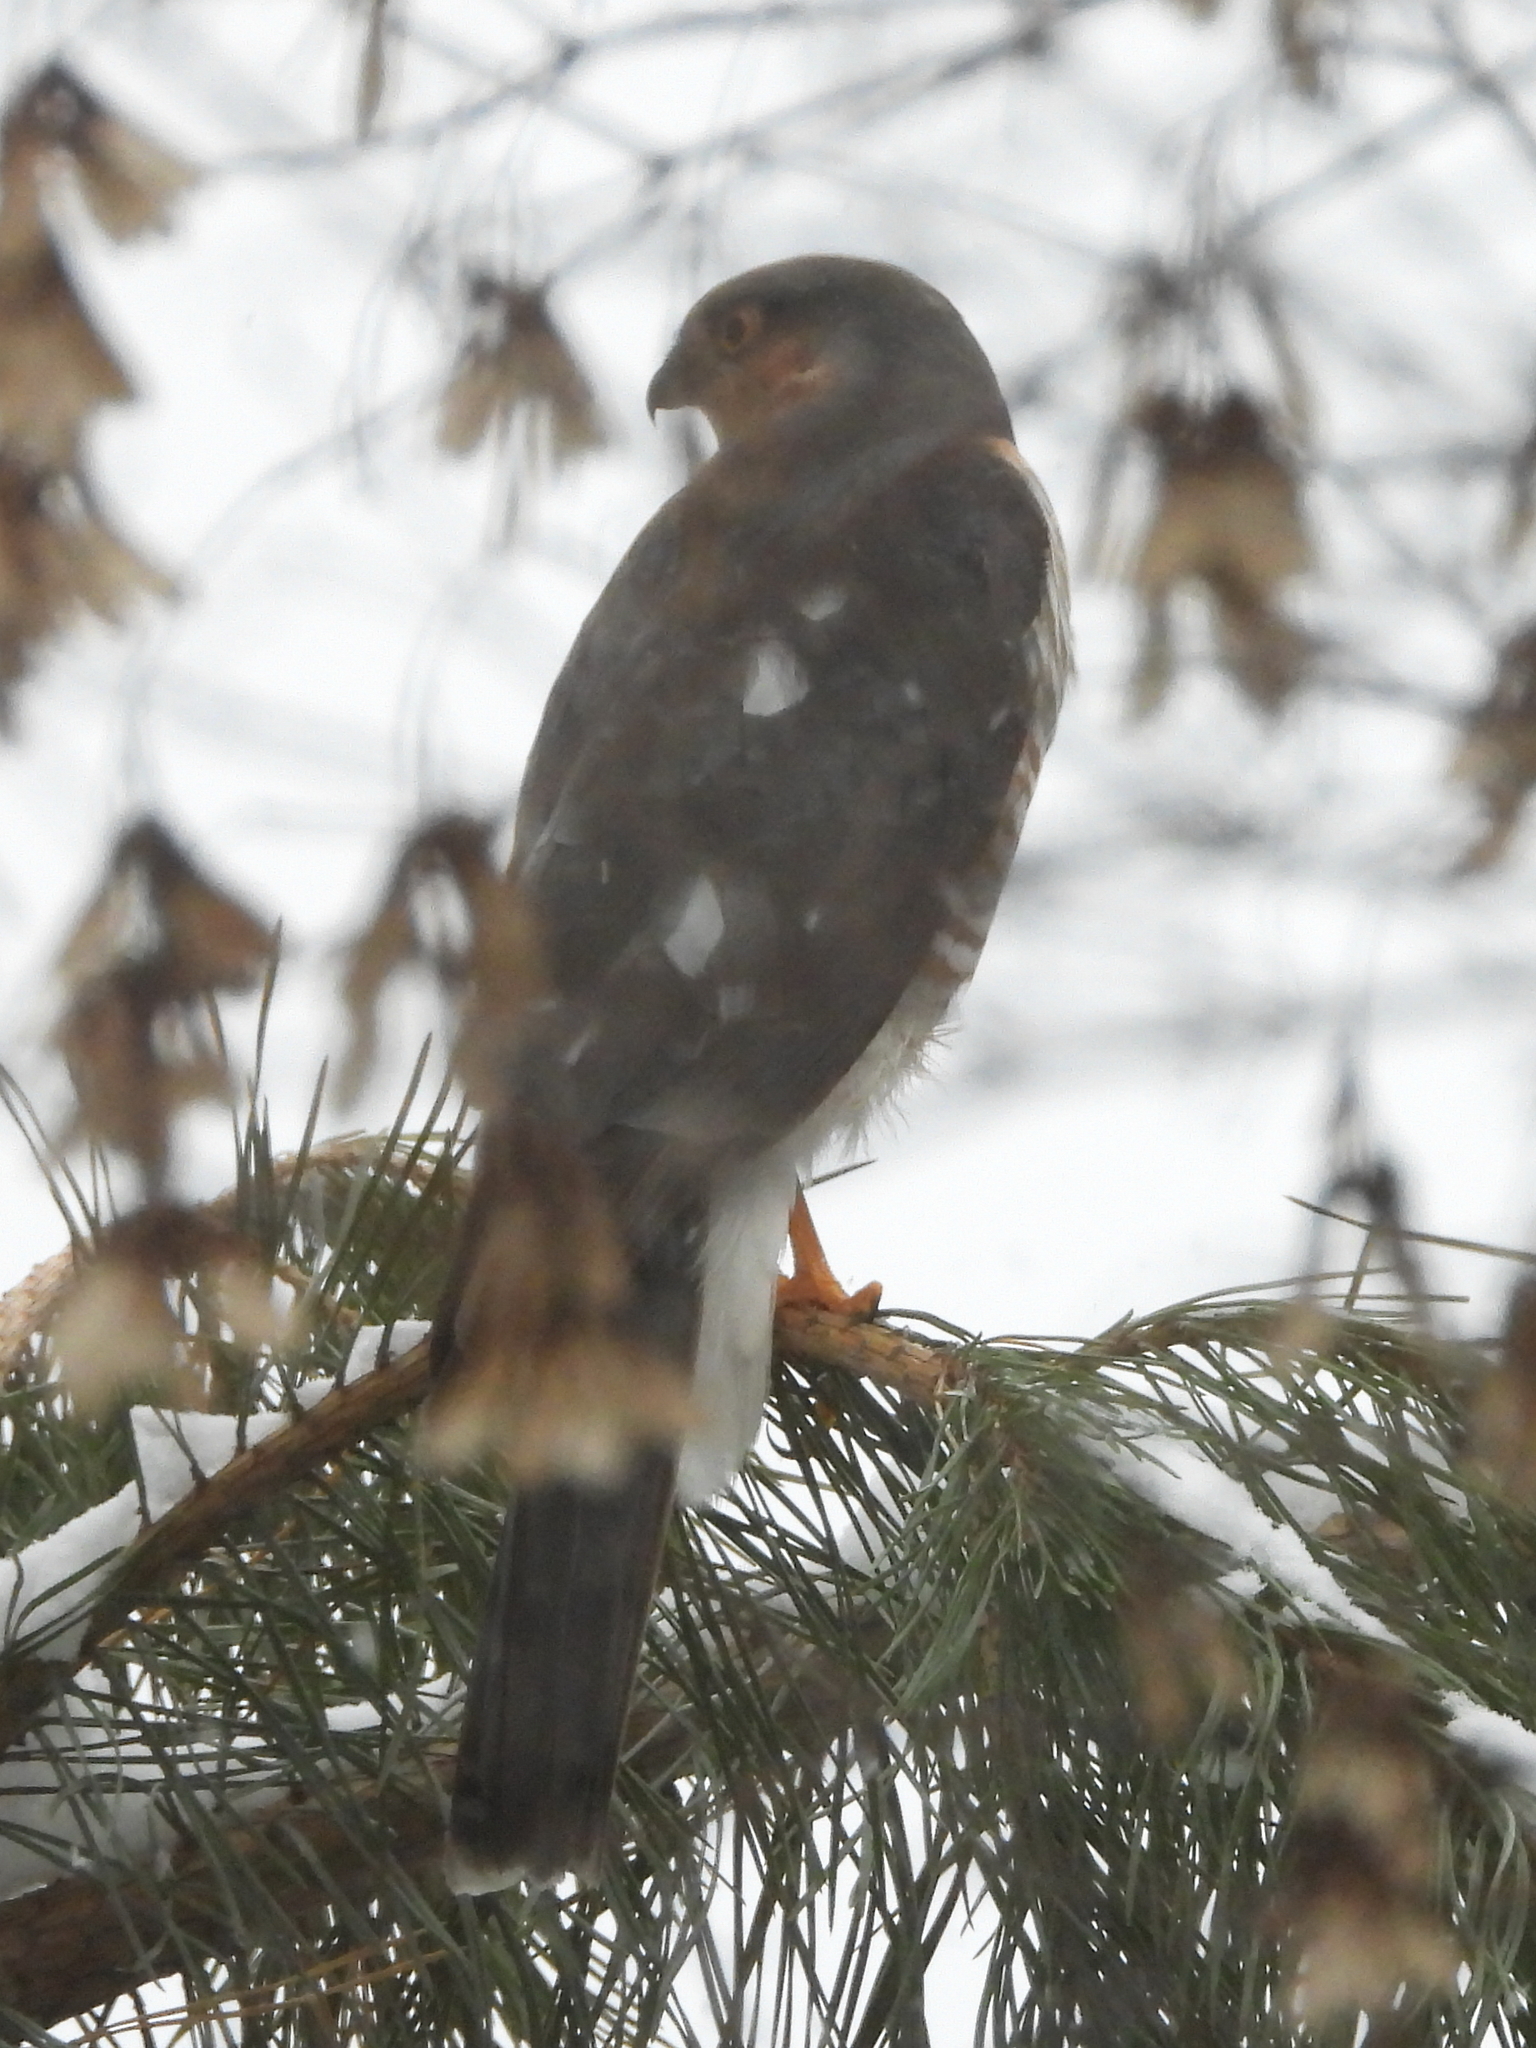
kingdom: Animalia
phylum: Chordata
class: Aves
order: Accipitriformes
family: Accipitridae
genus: Accipiter
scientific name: Accipiter nisus
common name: Eurasian sparrowhawk
